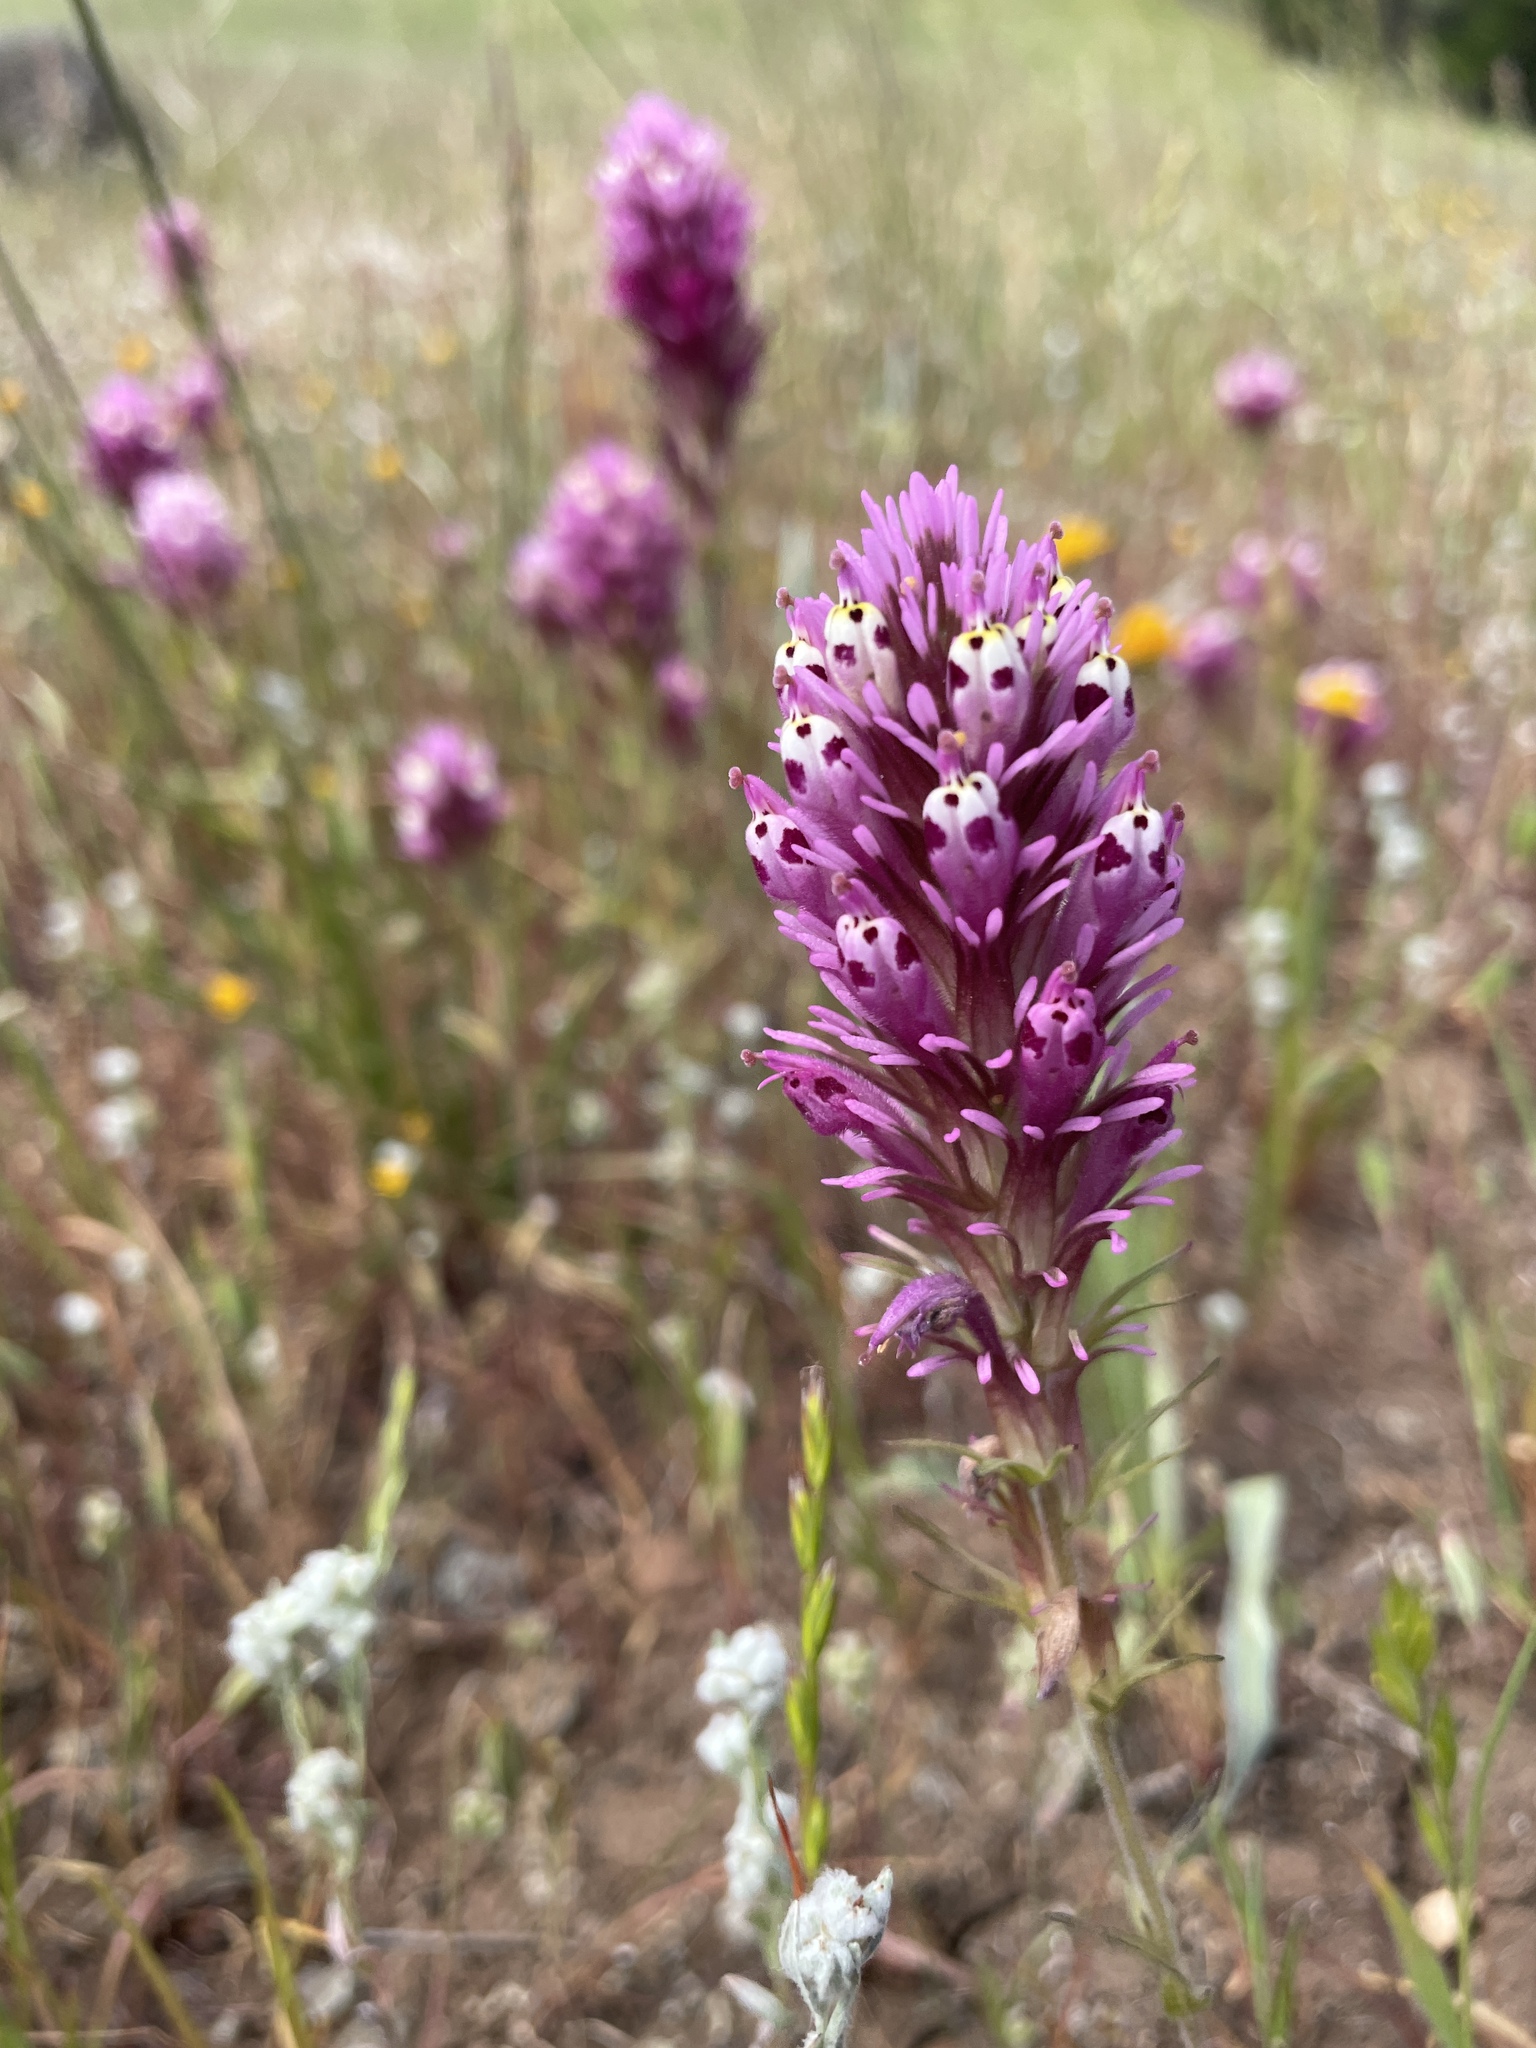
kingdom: Plantae
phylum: Tracheophyta
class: Magnoliopsida
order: Lamiales
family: Orobanchaceae
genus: Castilleja
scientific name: Castilleja densiflora
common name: Dense-flower indian paintbrush
